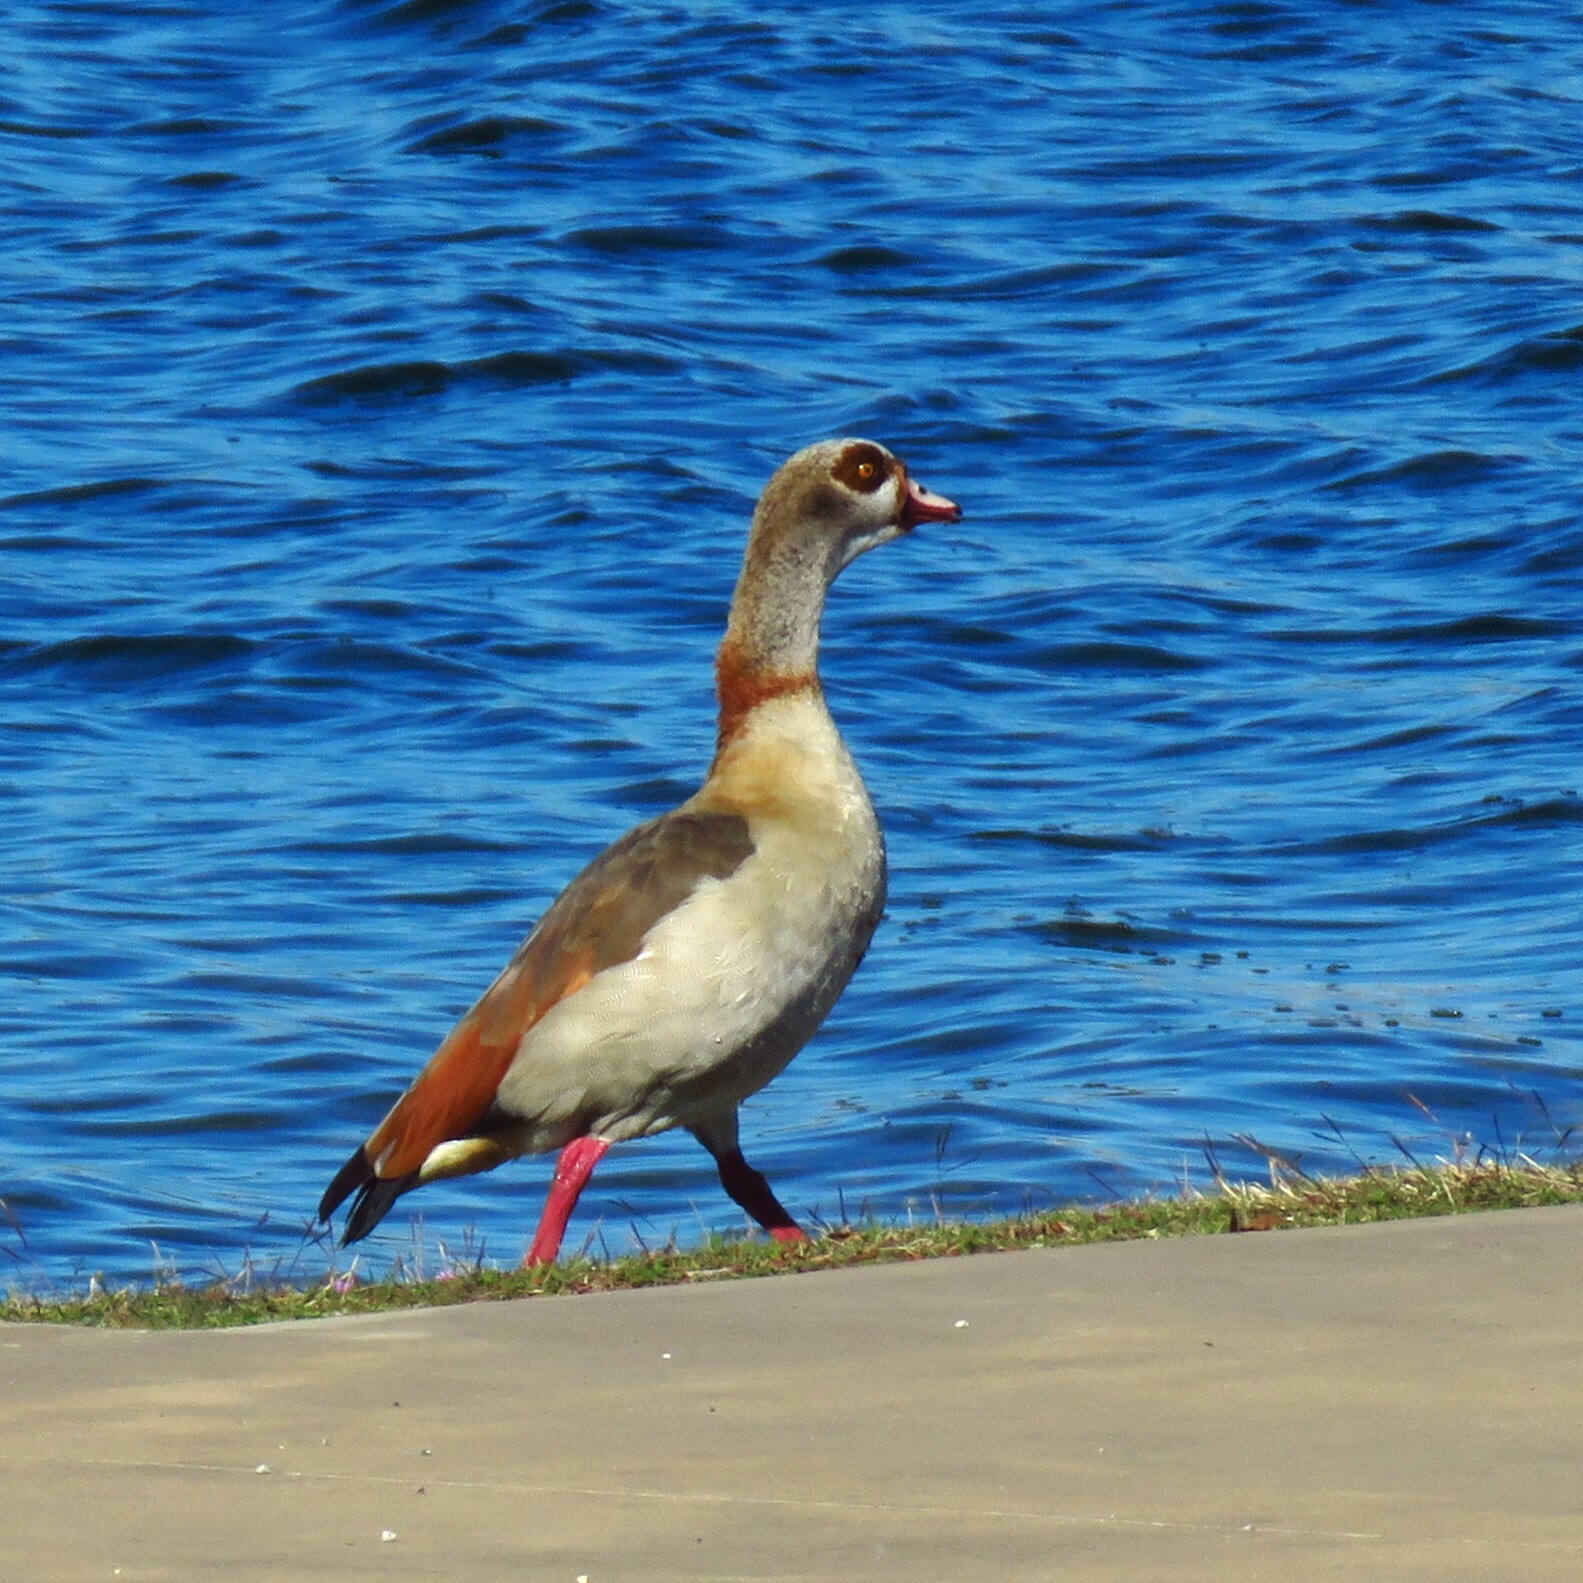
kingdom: Animalia
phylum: Chordata
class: Aves
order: Anseriformes
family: Anatidae
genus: Alopochen
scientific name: Alopochen aegyptiaca
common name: Egyptian goose
